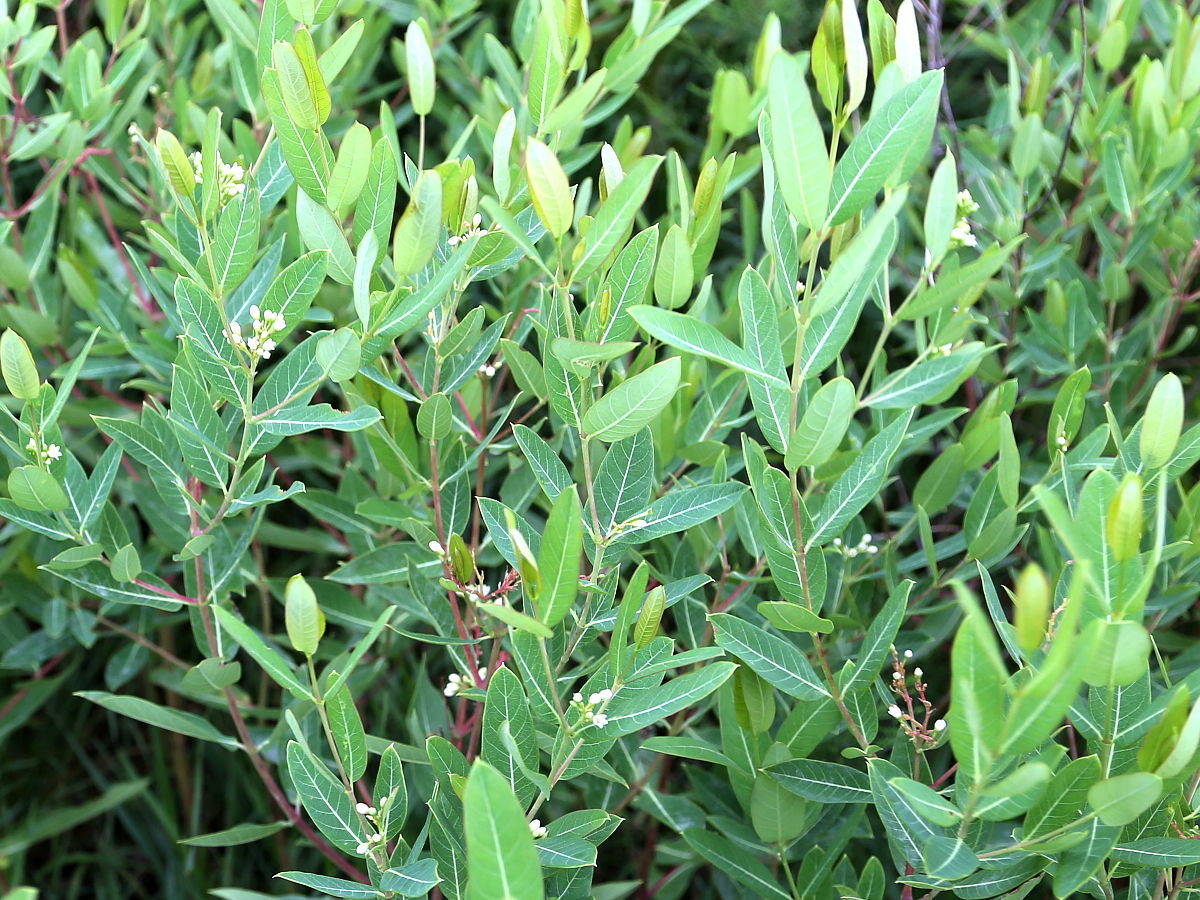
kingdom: Plantae
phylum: Tracheophyta
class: Magnoliopsida
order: Gentianales
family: Apocynaceae
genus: Apocynum
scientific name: Apocynum cannabinum
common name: Hemp dogbane
